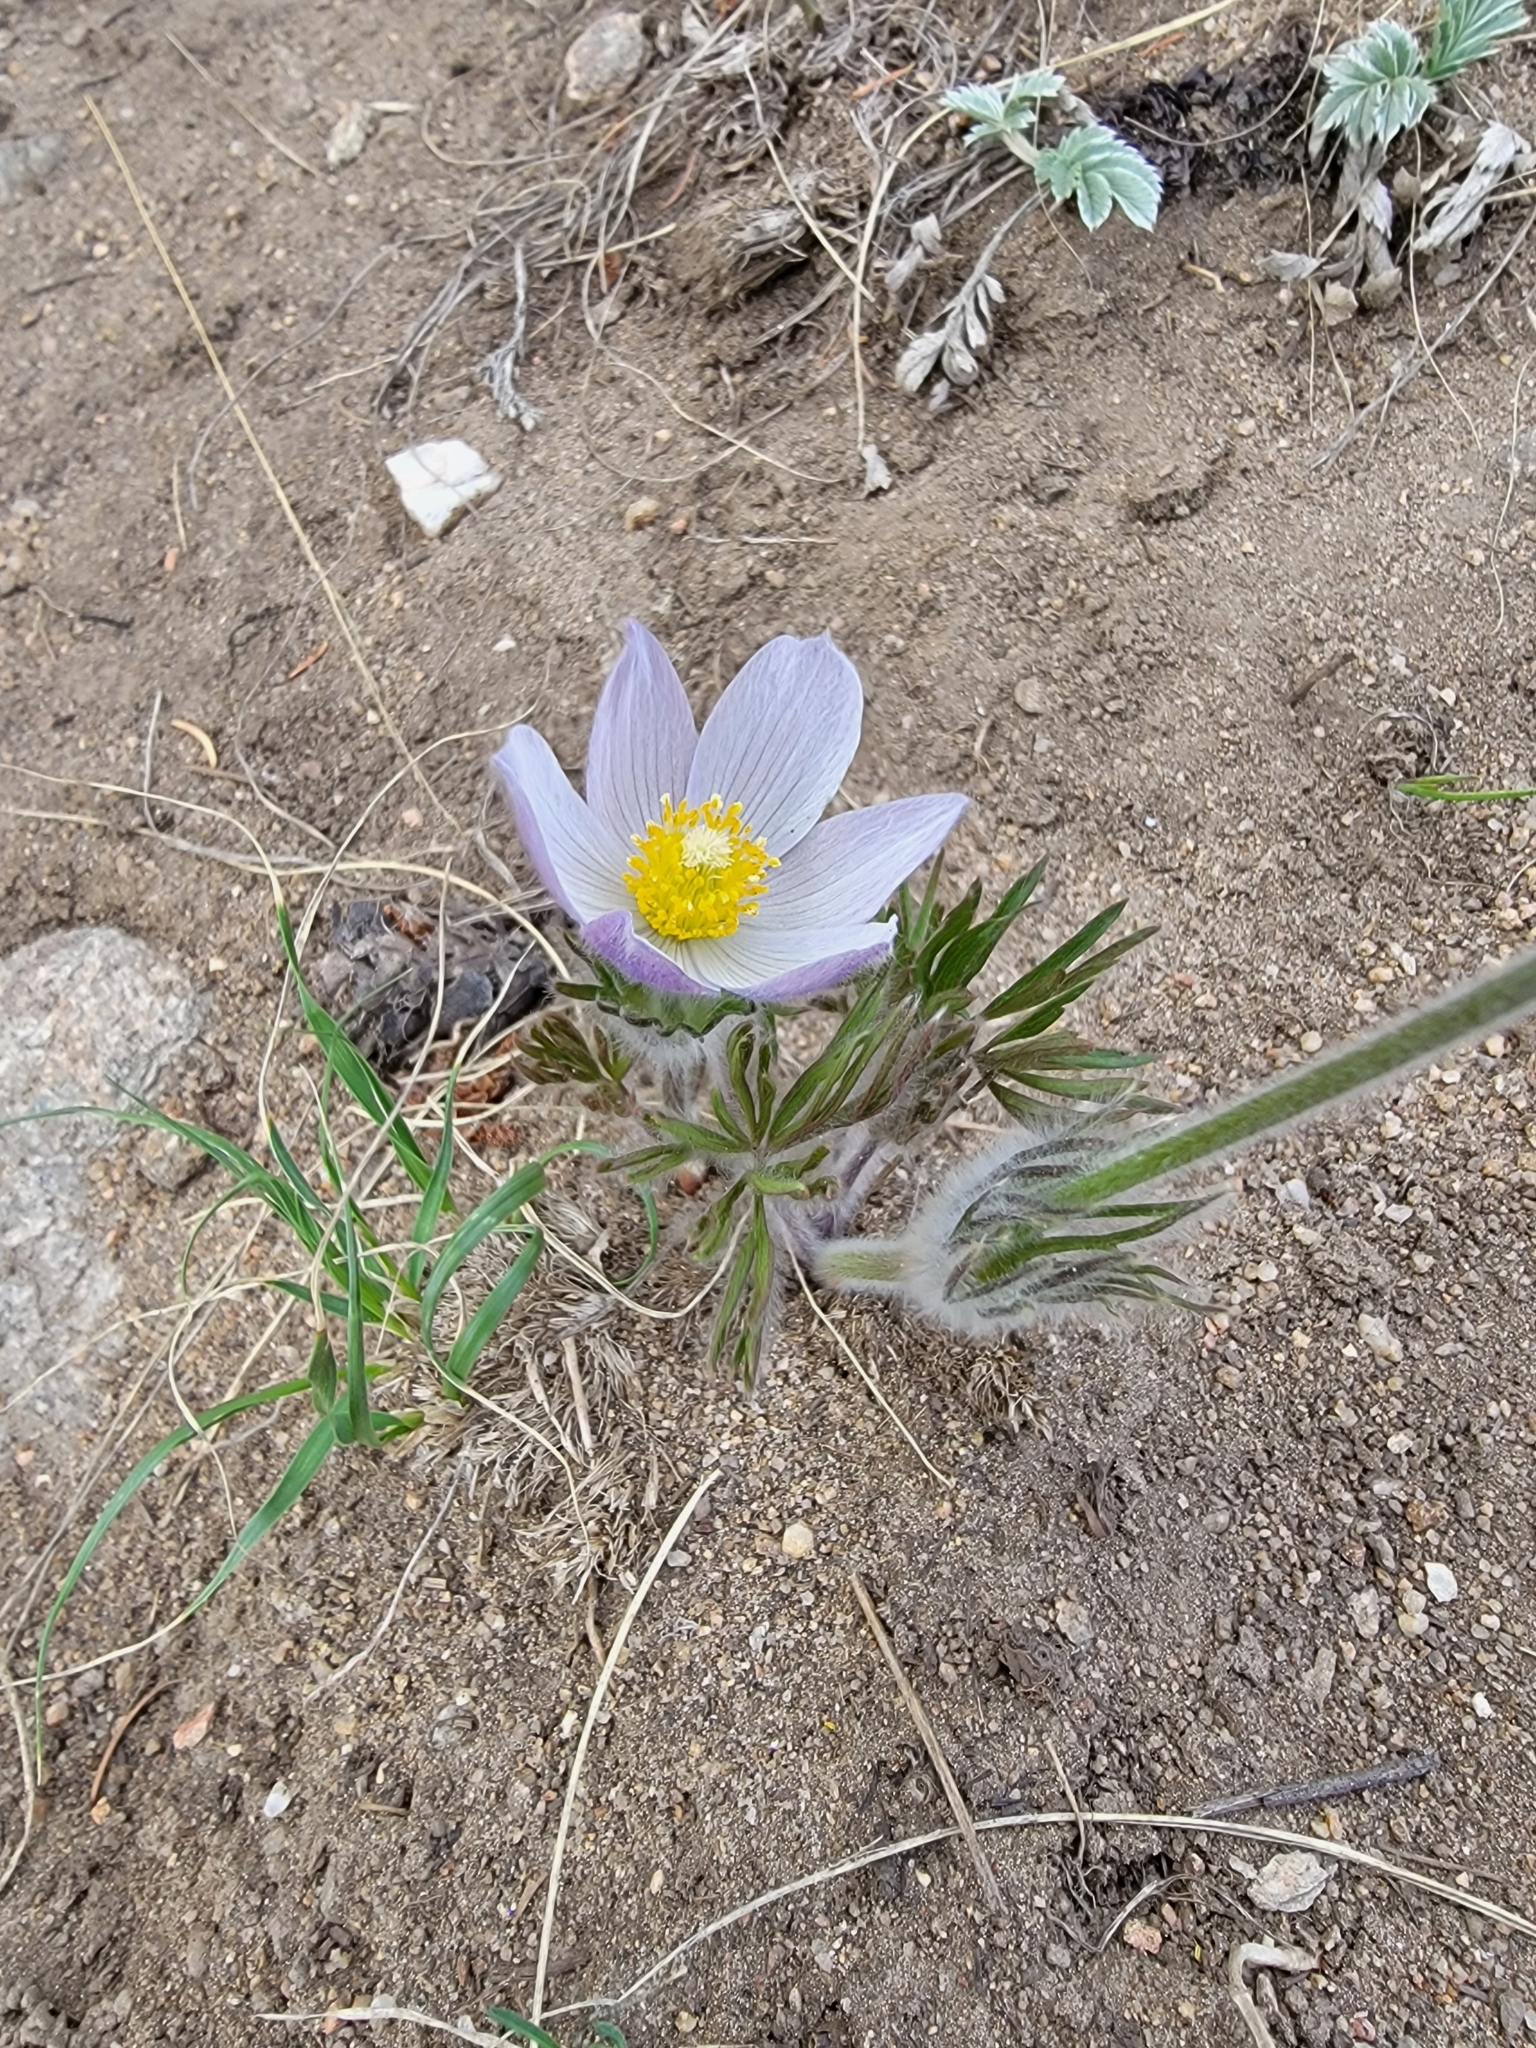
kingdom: Plantae
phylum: Tracheophyta
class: Magnoliopsida
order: Ranunculales
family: Ranunculaceae
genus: Pulsatilla
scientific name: Pulsatilla nuttalliana
